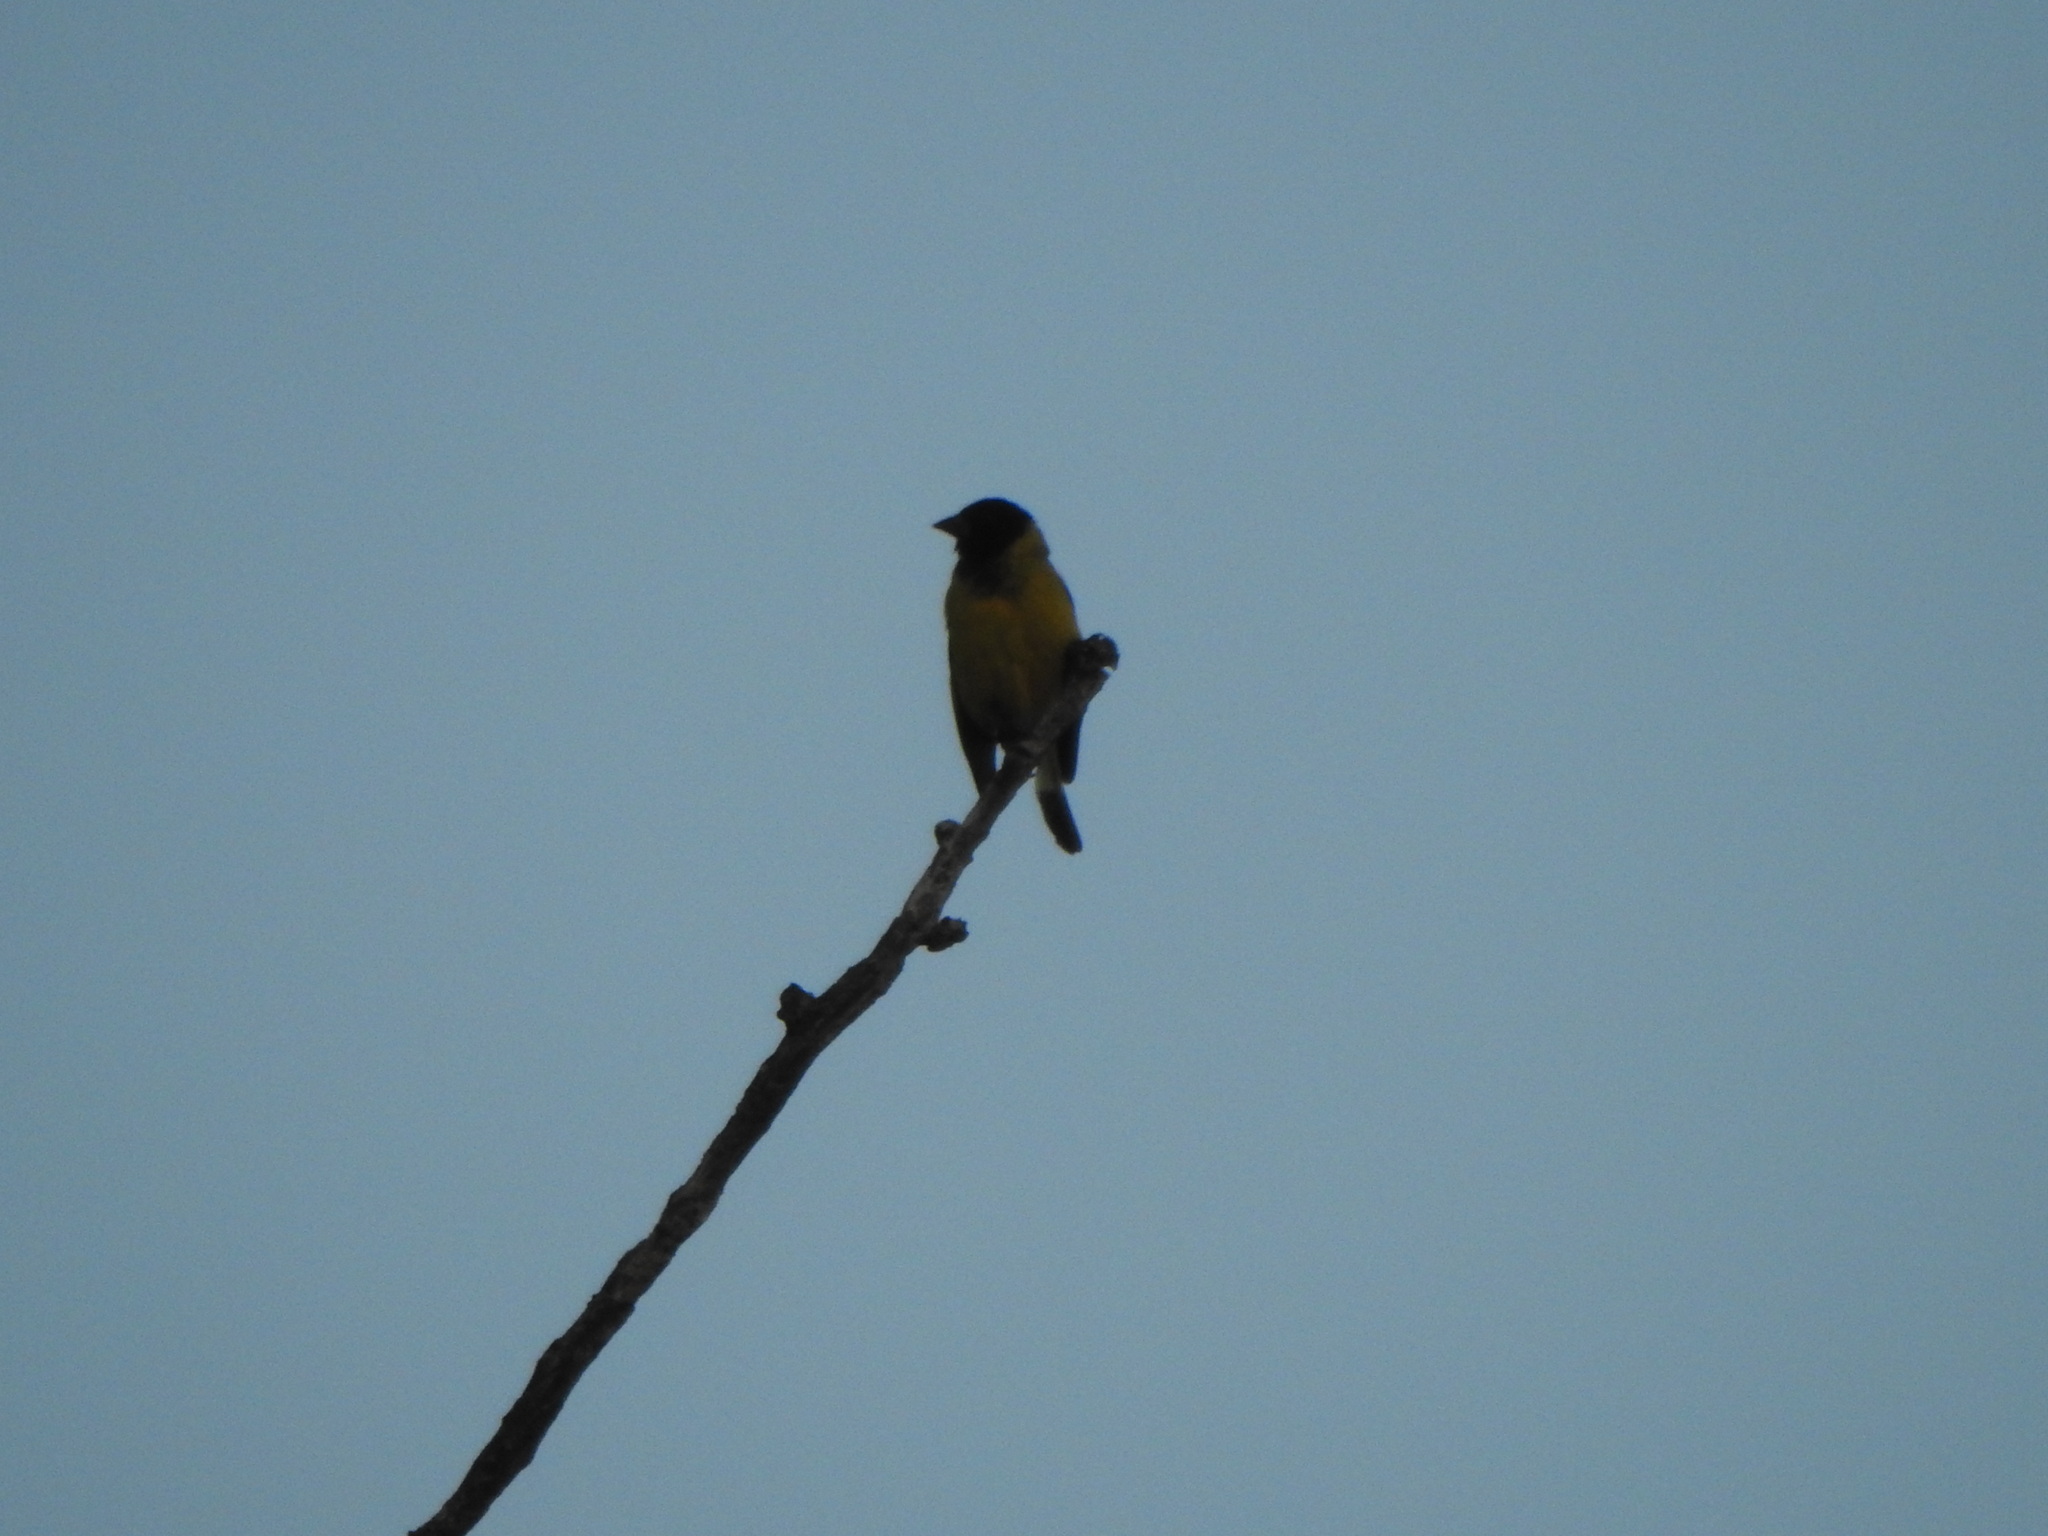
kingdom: Animalia
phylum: Chordata
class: Aves
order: Passeriformes
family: Fringillidae
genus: Spinus
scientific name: Spinus magellanicus
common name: Hooded siskin
